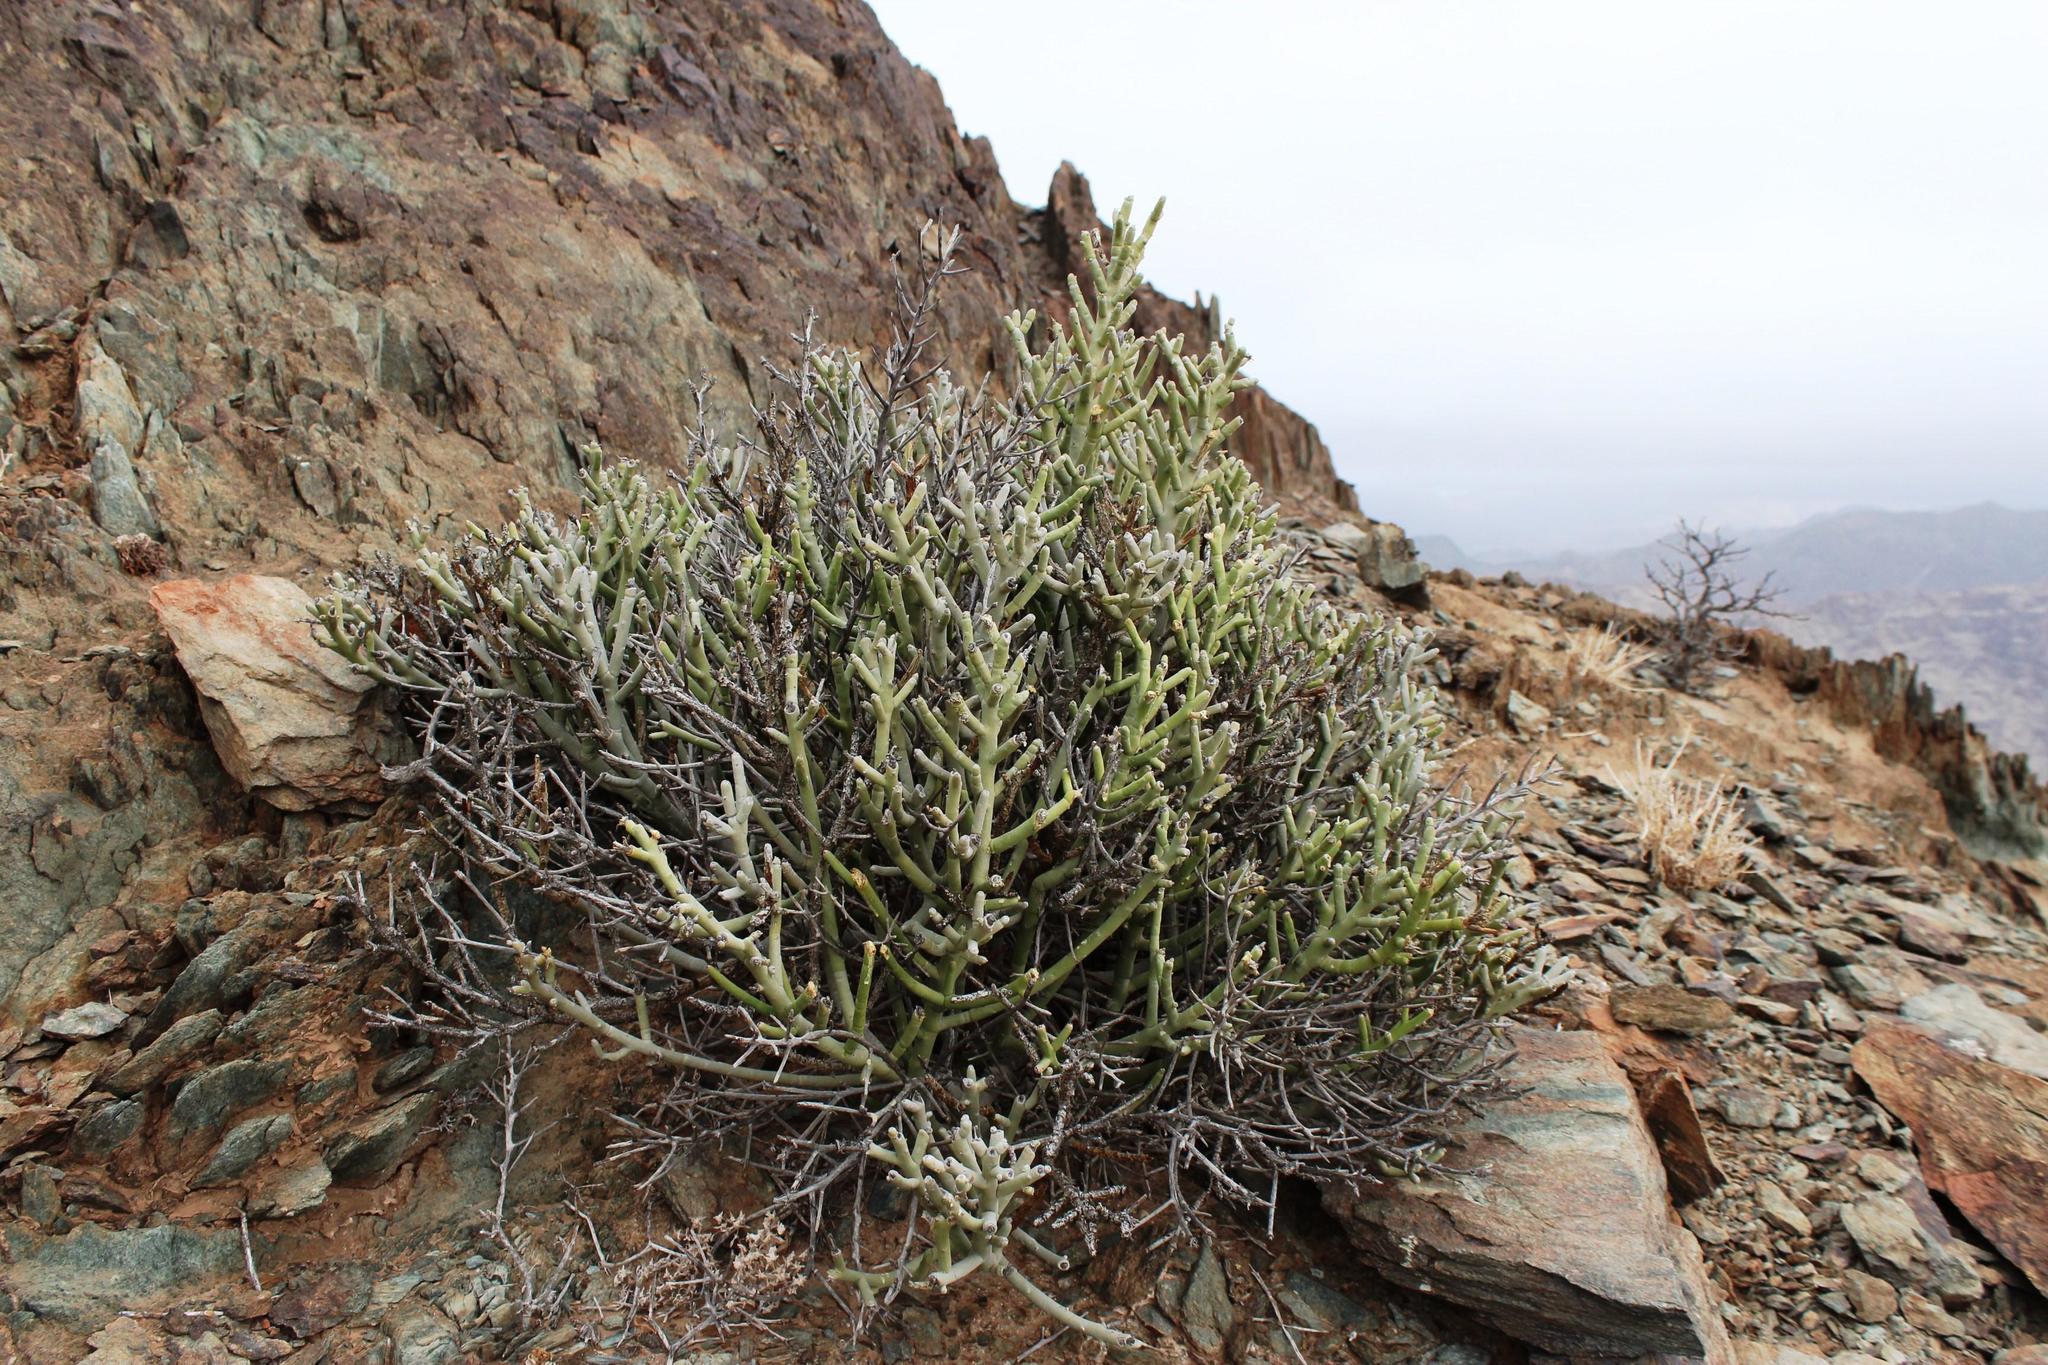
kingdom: Plantae
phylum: Tracheophyta
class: Magnoliopsida
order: Malpighiales
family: Euphorbiaceae
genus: Euphorbia
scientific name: Euphorbia gummifera
